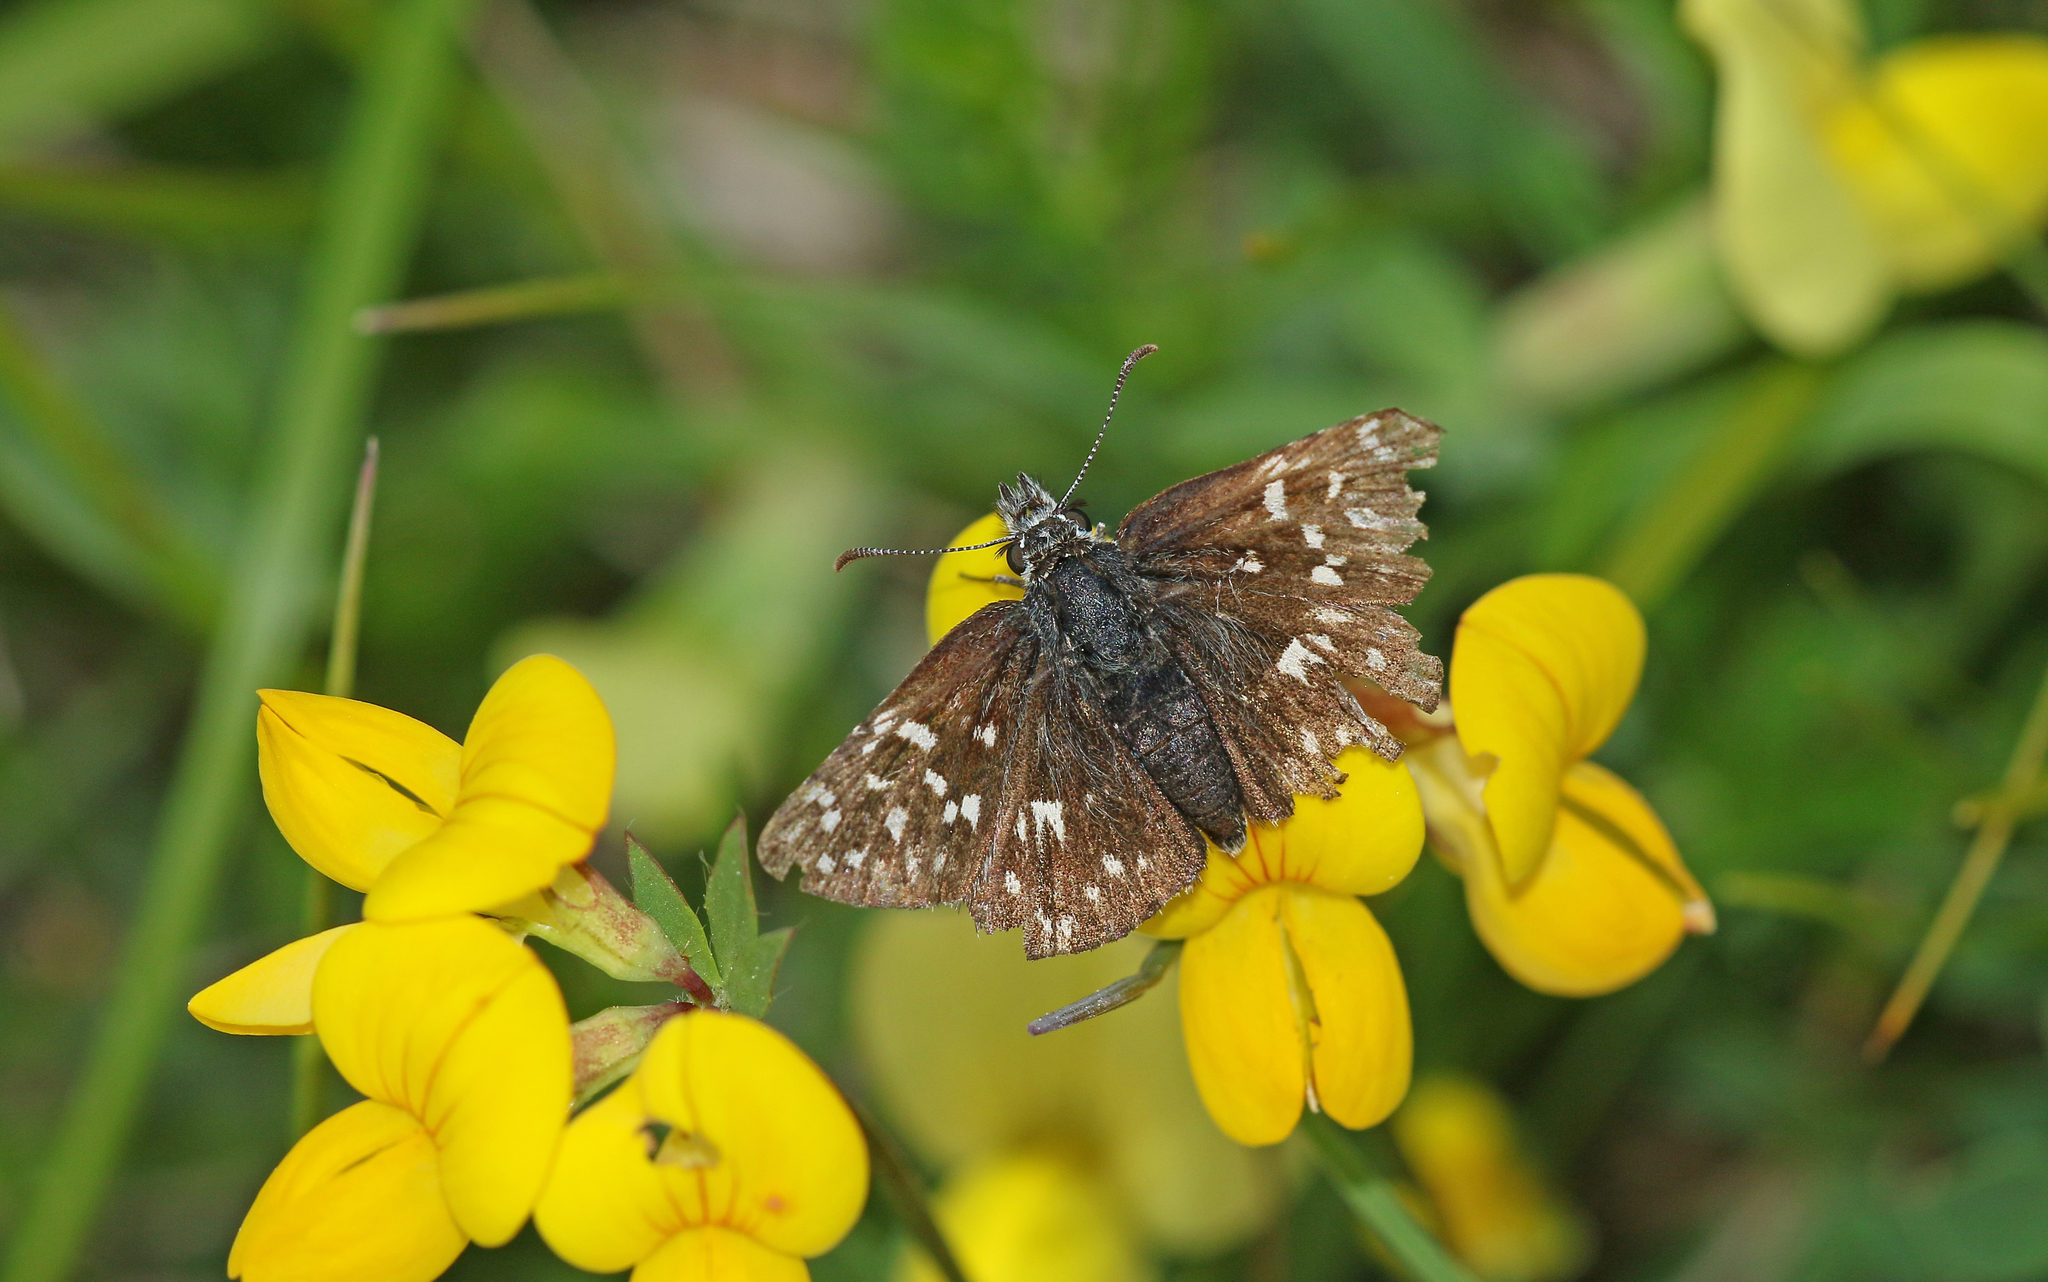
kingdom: Animalia
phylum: Arthropoda
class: Insecta
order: Lepidoptera
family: Hesperiidae
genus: Pyrgus
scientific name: Pyrgus malvae
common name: Grizzled skipper
